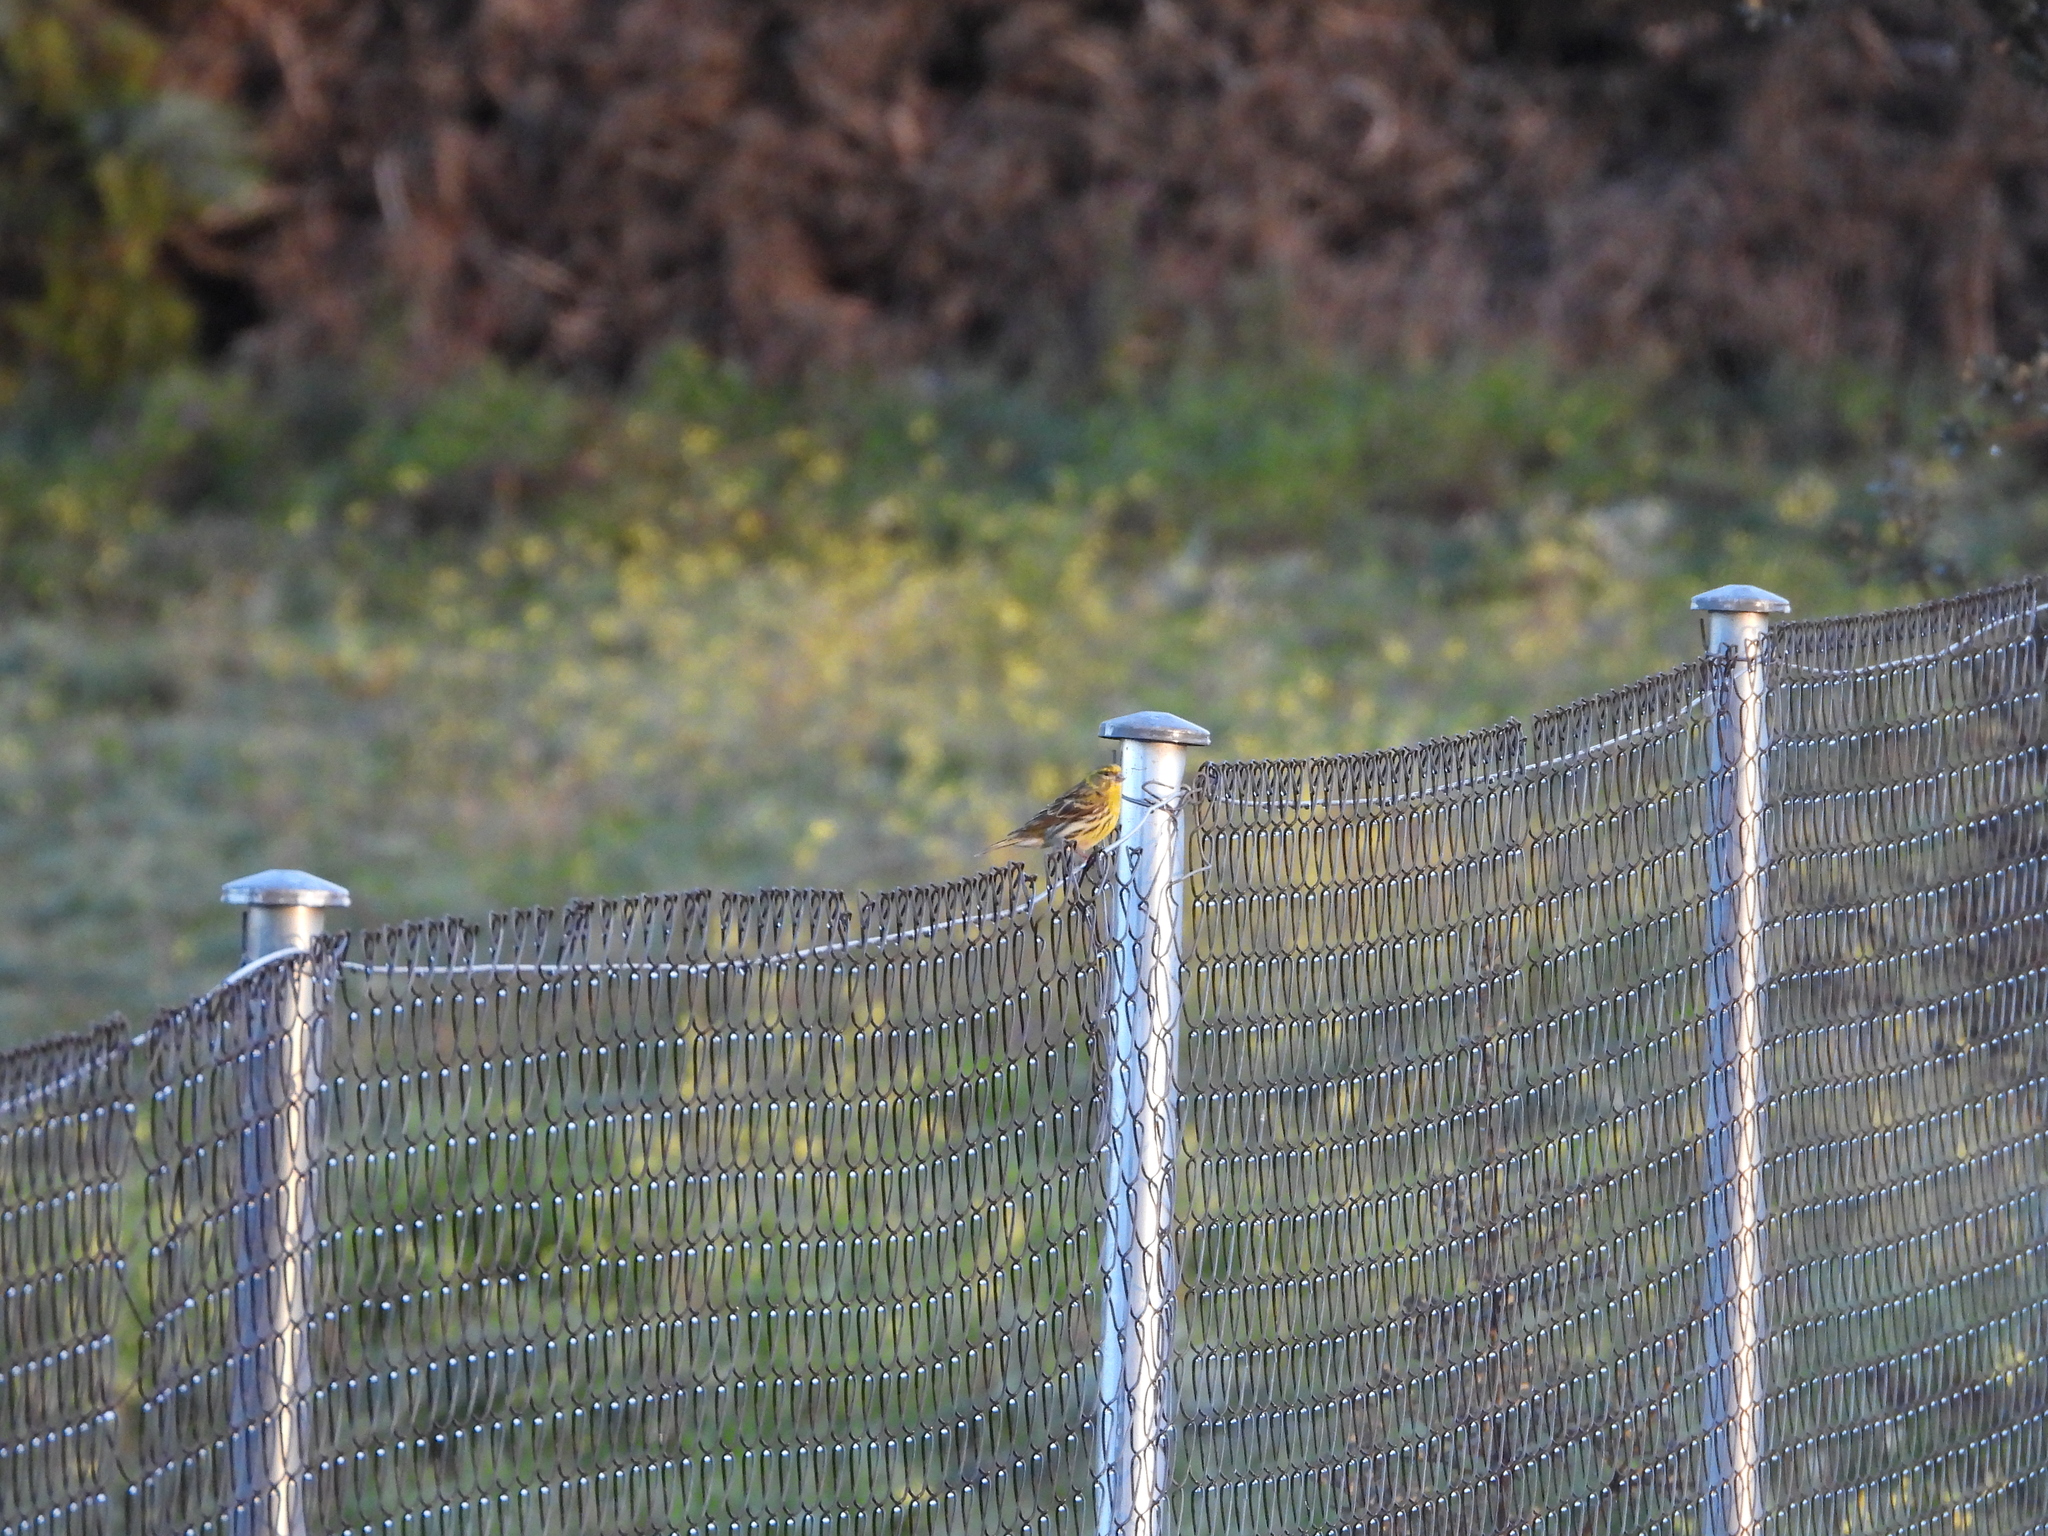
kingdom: Animalia
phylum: Chordata
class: Aves
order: Passeriformes
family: Fringillidae
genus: Serinus
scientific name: Serinus serinus
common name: European serin
